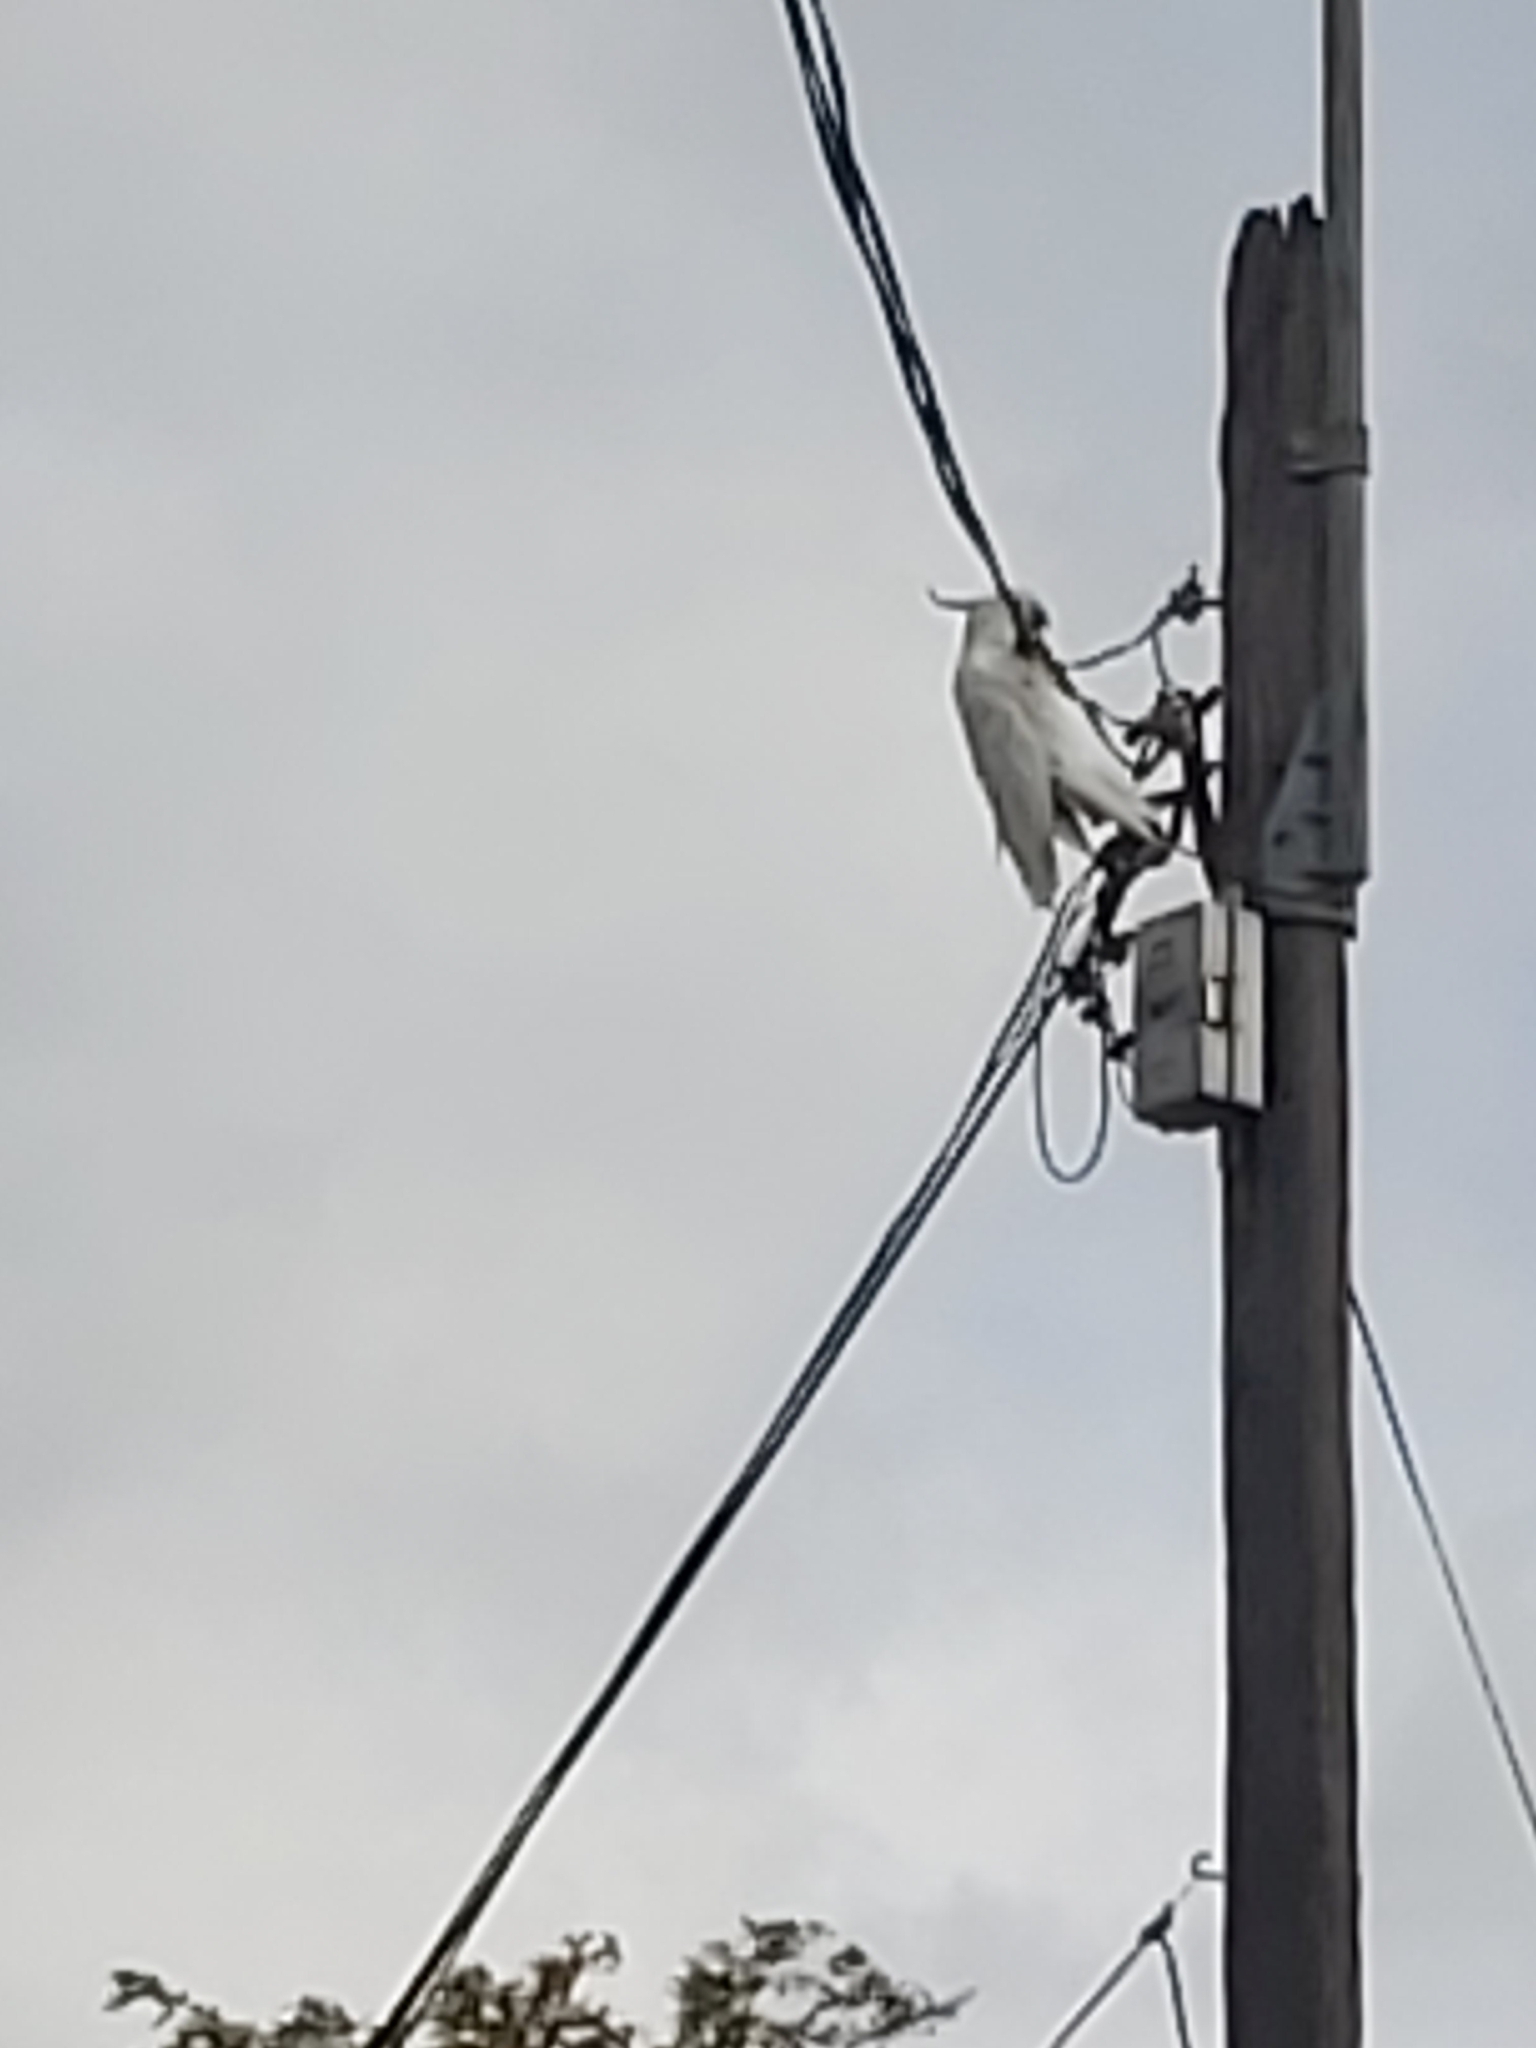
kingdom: Animalia
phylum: Chordata
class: Aves
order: Psittaciformes
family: Psittacidae
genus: Cacatua
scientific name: Cacatua galerita
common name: Sulphur-crested cockatoo
